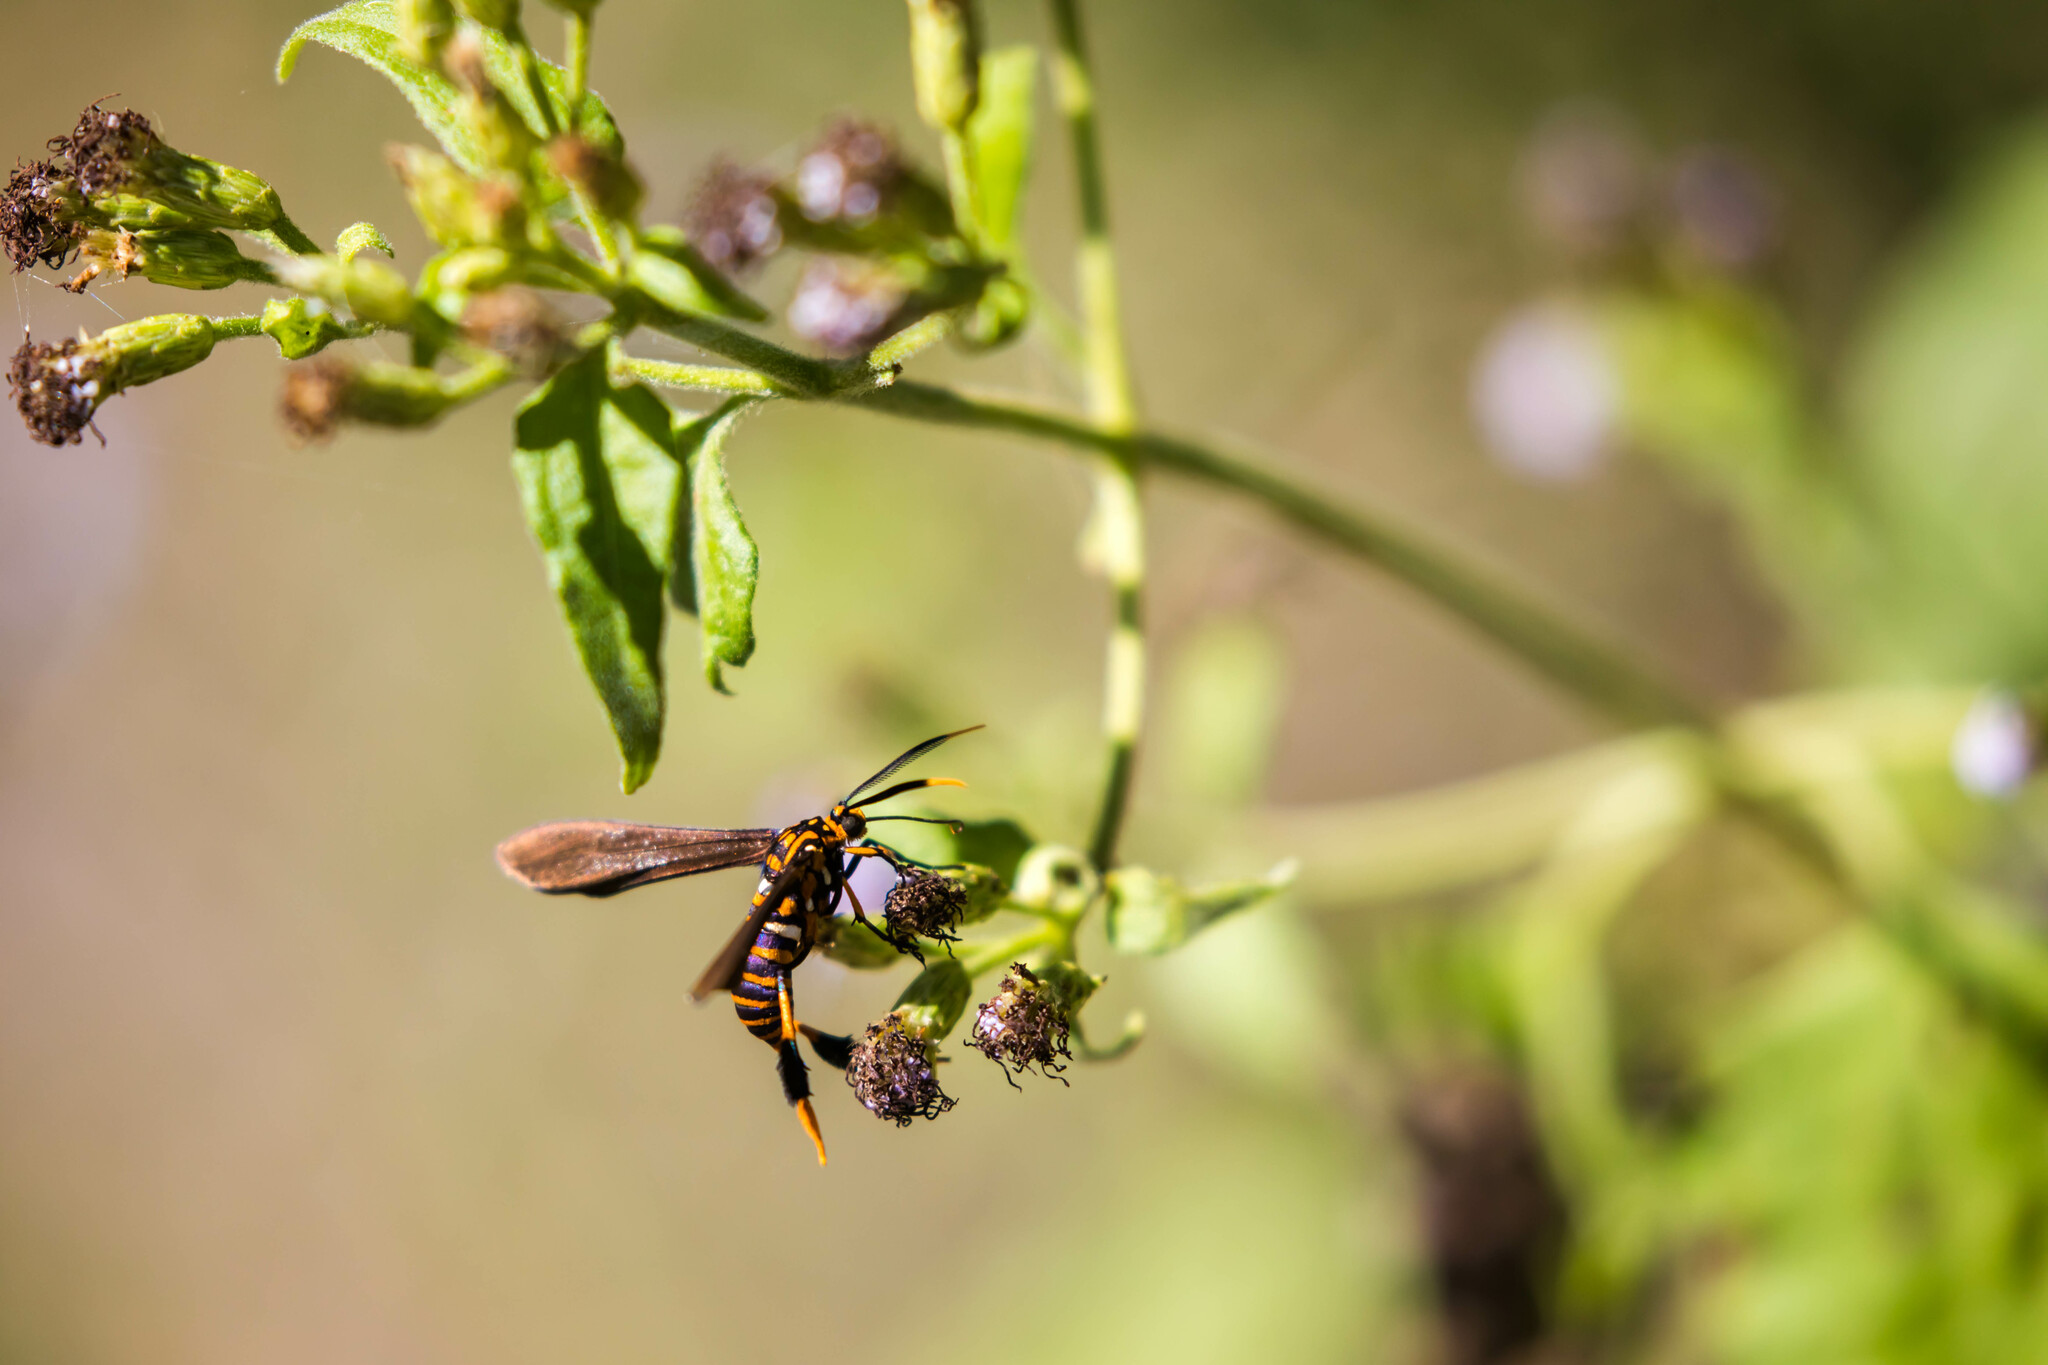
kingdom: Animalia
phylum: Arthropoda
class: Insecta
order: Lepidoptera
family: Erebidae
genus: Horama
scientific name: Horama panthalon
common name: Texas wasp moth
